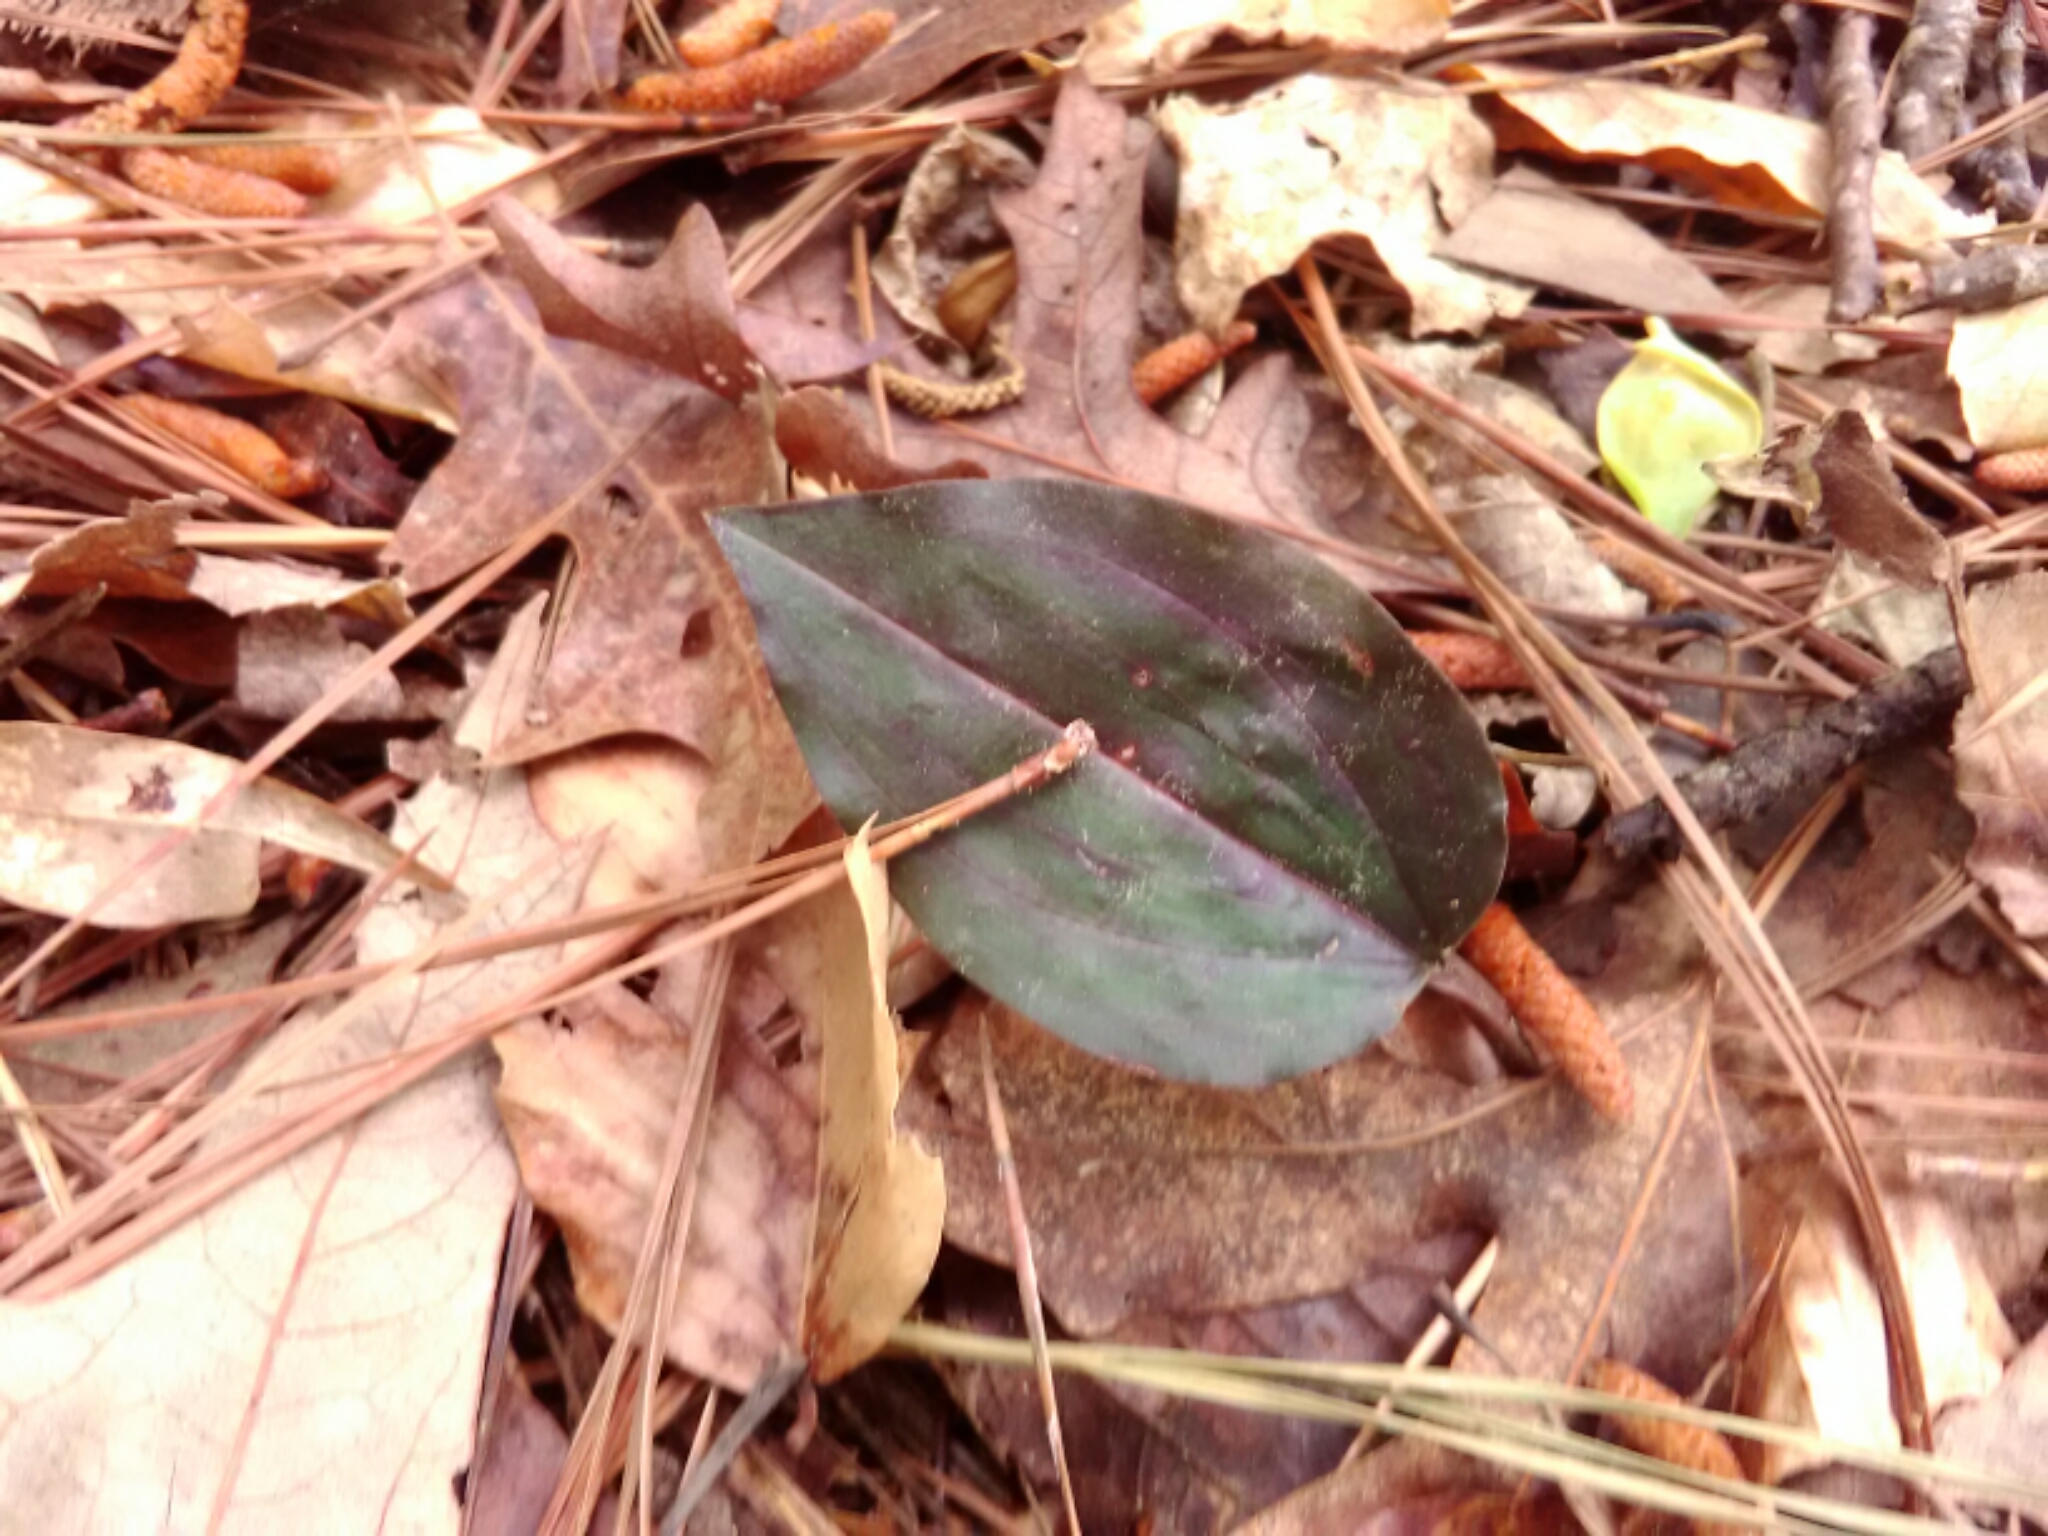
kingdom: Plantae
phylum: Tracheophyta
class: Liliopsida
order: Asparagales
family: Orchidaceae
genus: Tipularia
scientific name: Tipularia discolor
